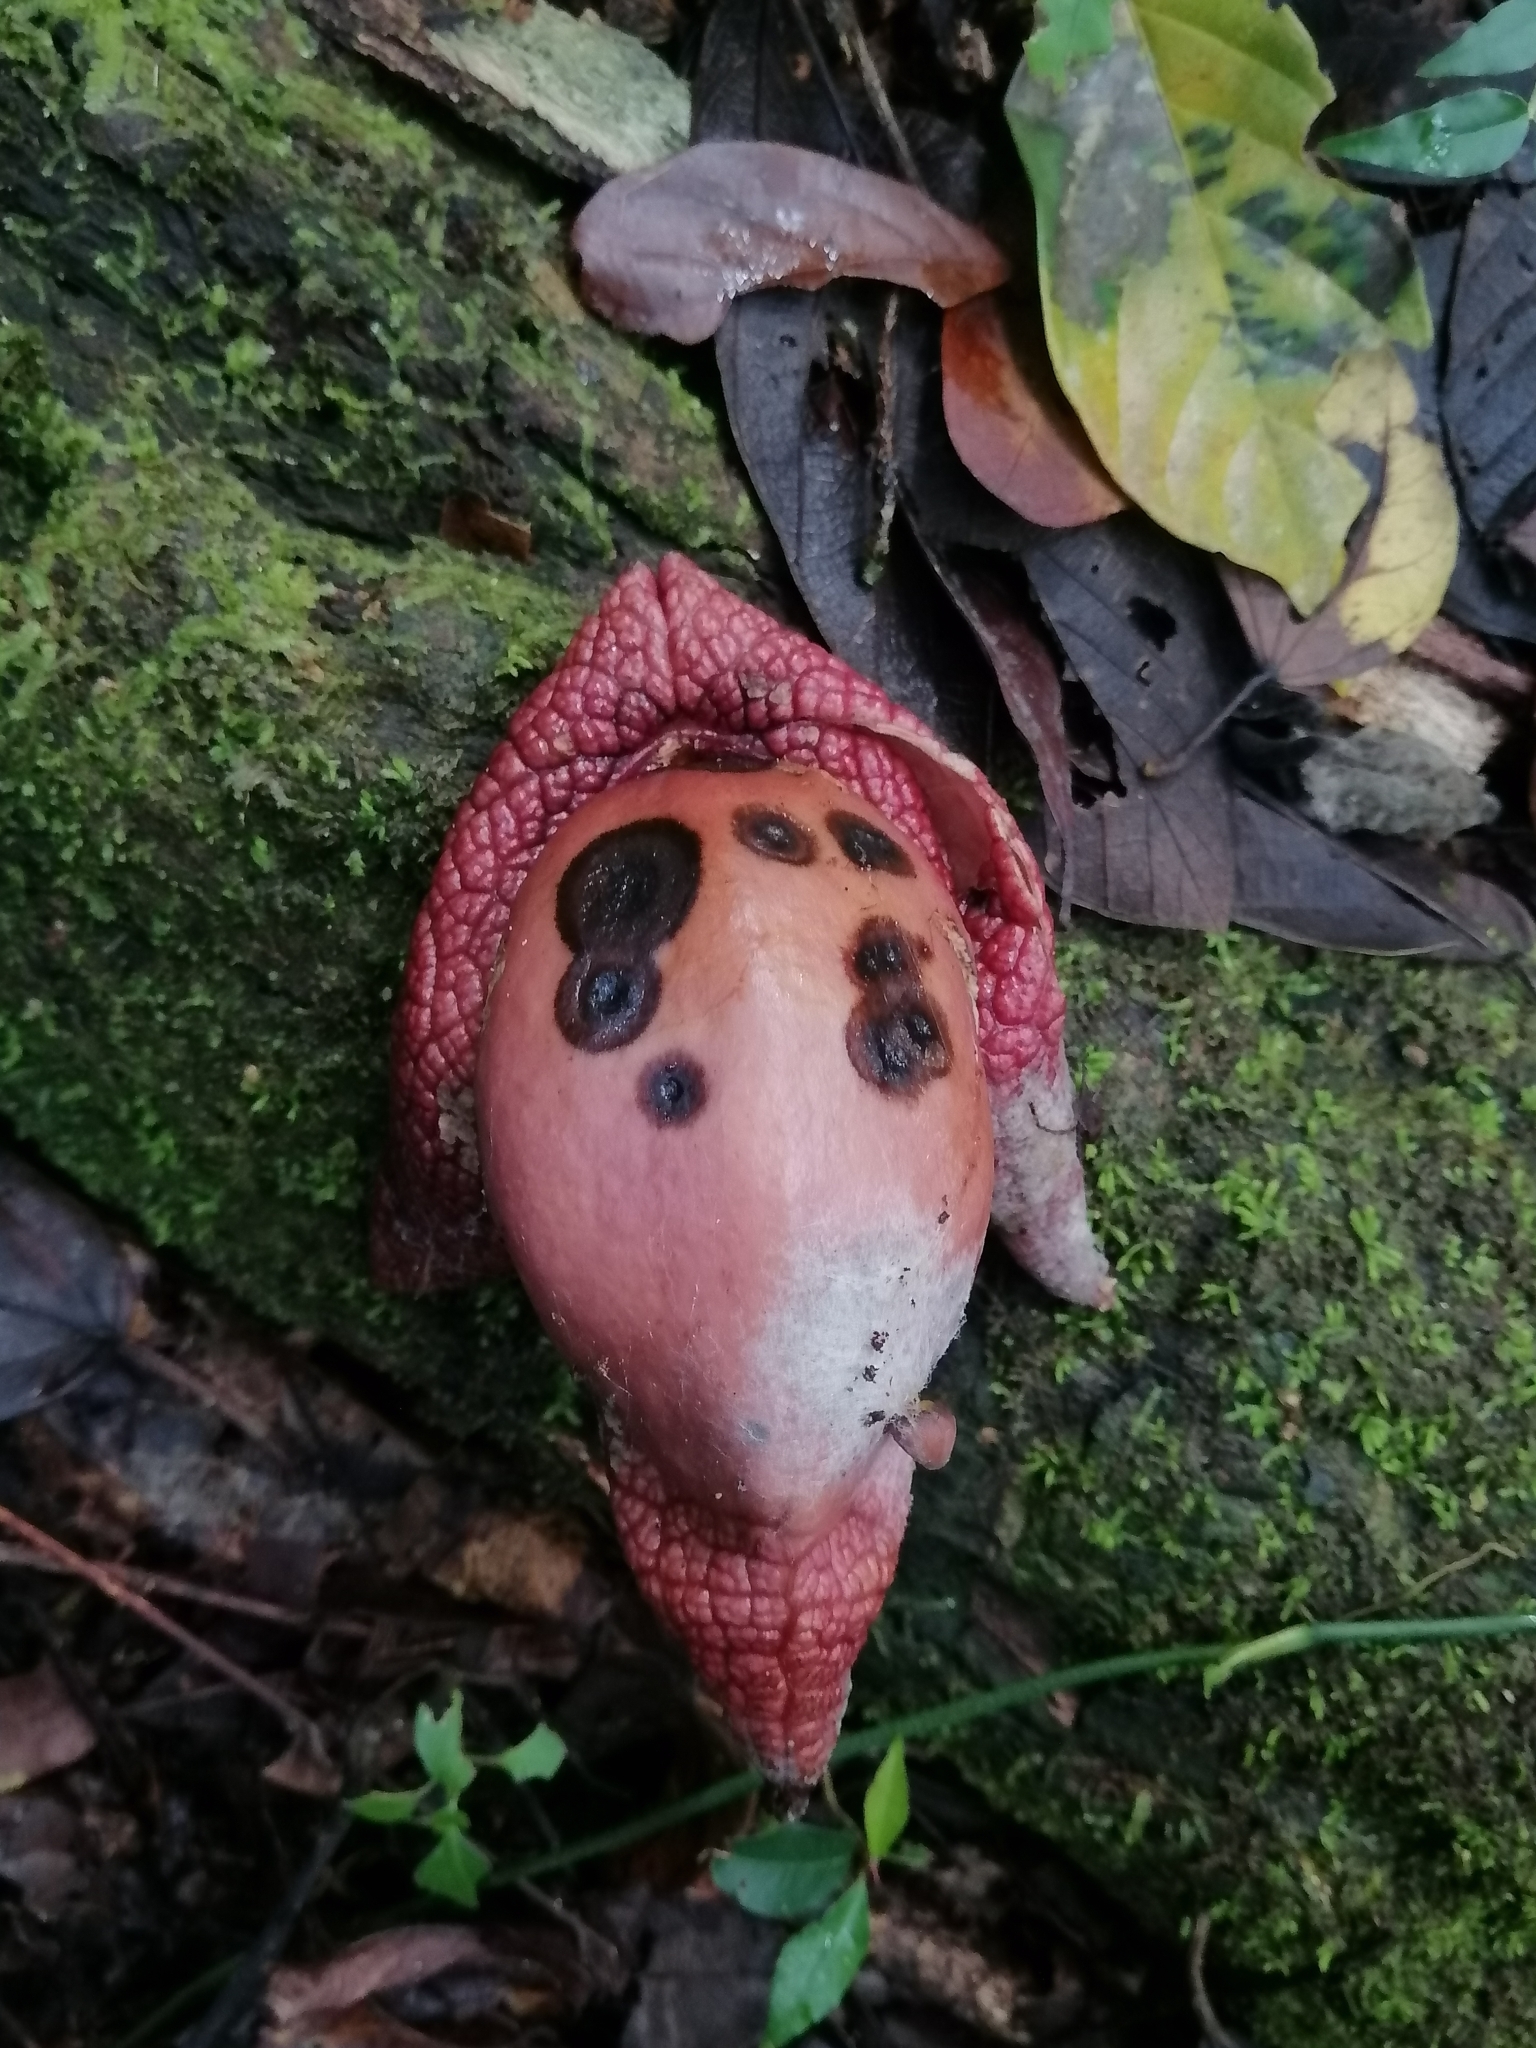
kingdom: Plantae
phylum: Tracheophyta
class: Magnoliopsida
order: Piperales
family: Aristolochiaceae
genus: Isotrema
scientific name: Isotrema paracletum
